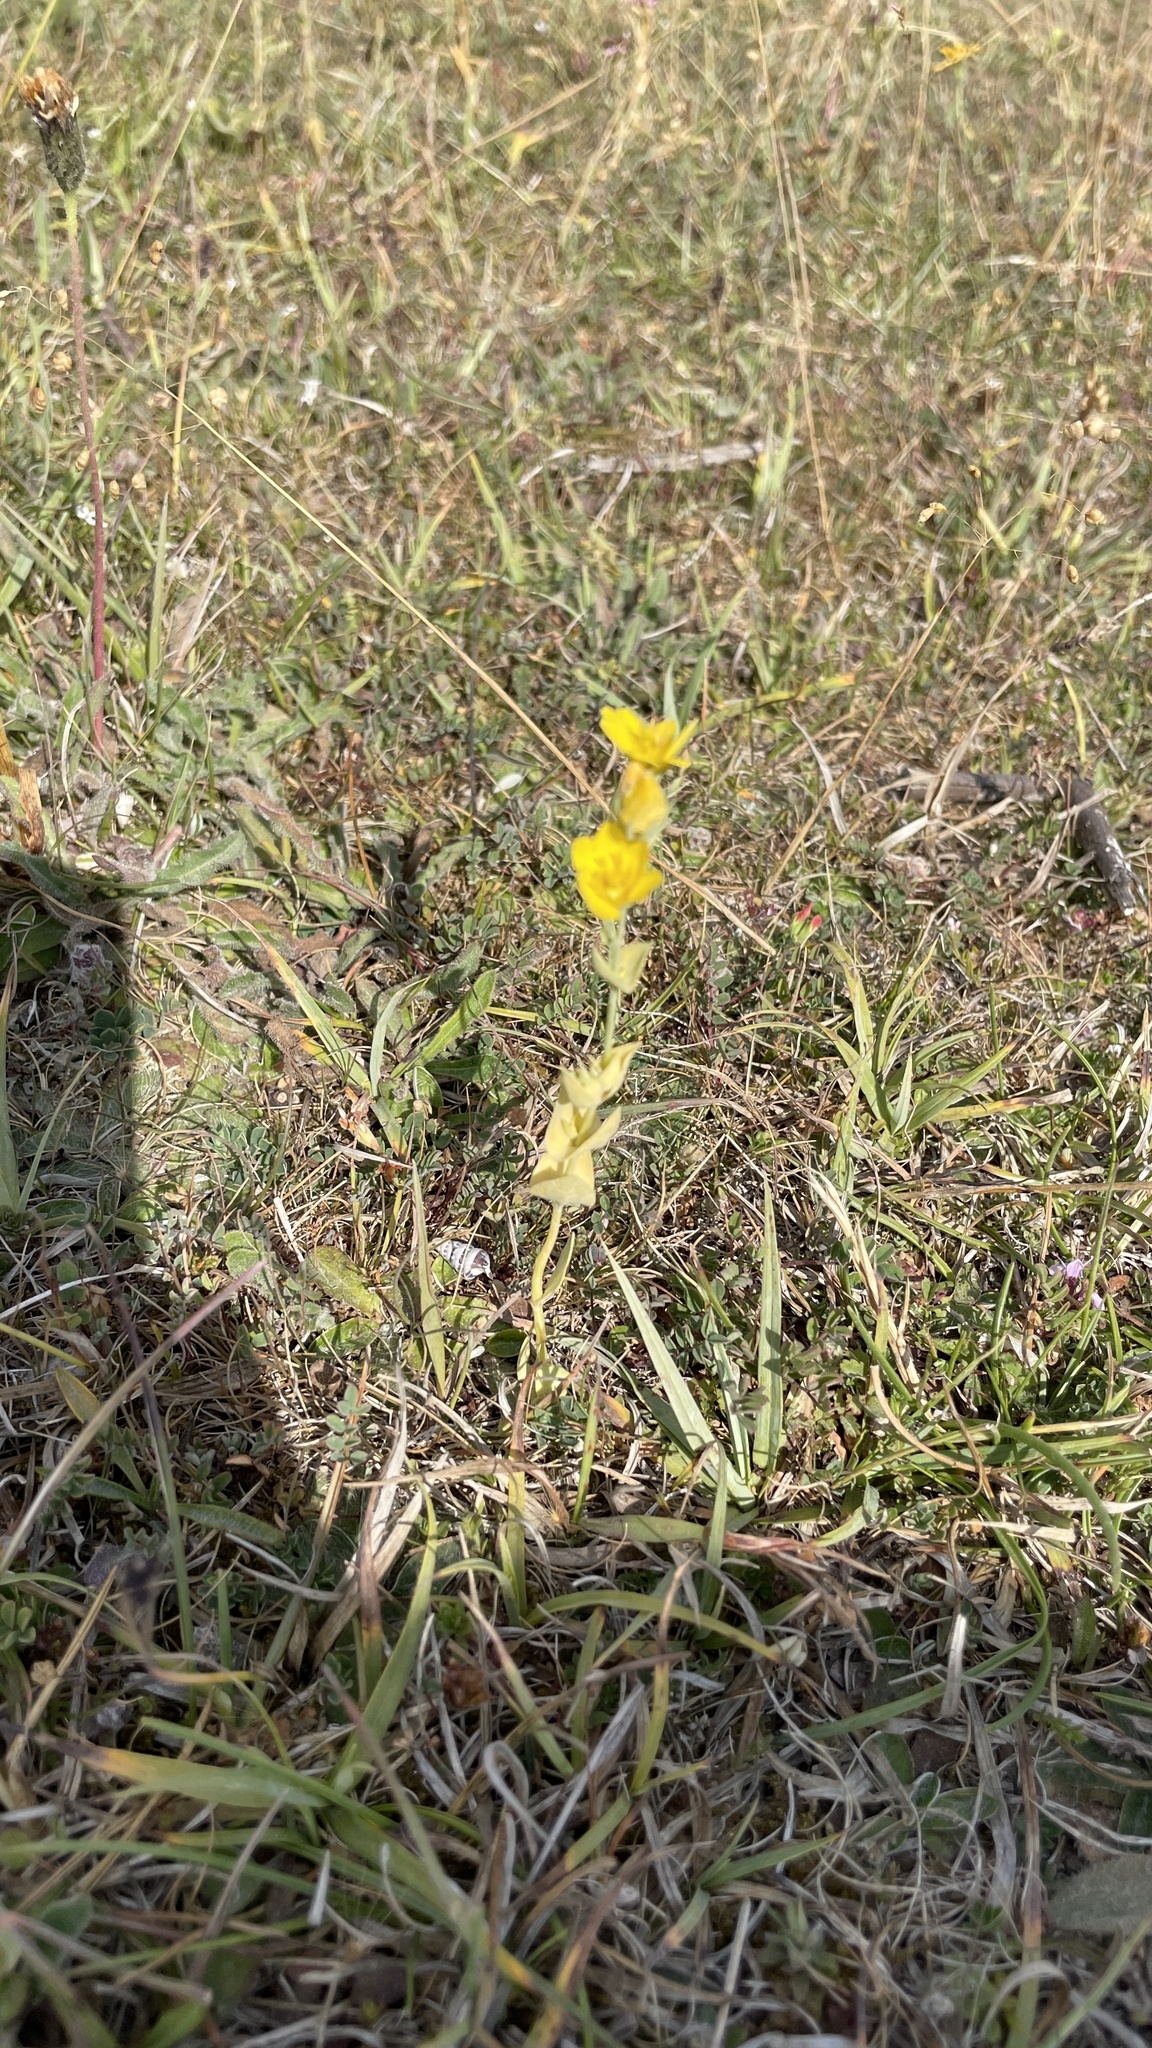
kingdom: Plantae
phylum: Tracheophyta
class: Magnoliopsida
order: Gentianales
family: Gentianaceae
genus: Blackstonia
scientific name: Blackstonia perfoliata
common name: Yellow-wort
